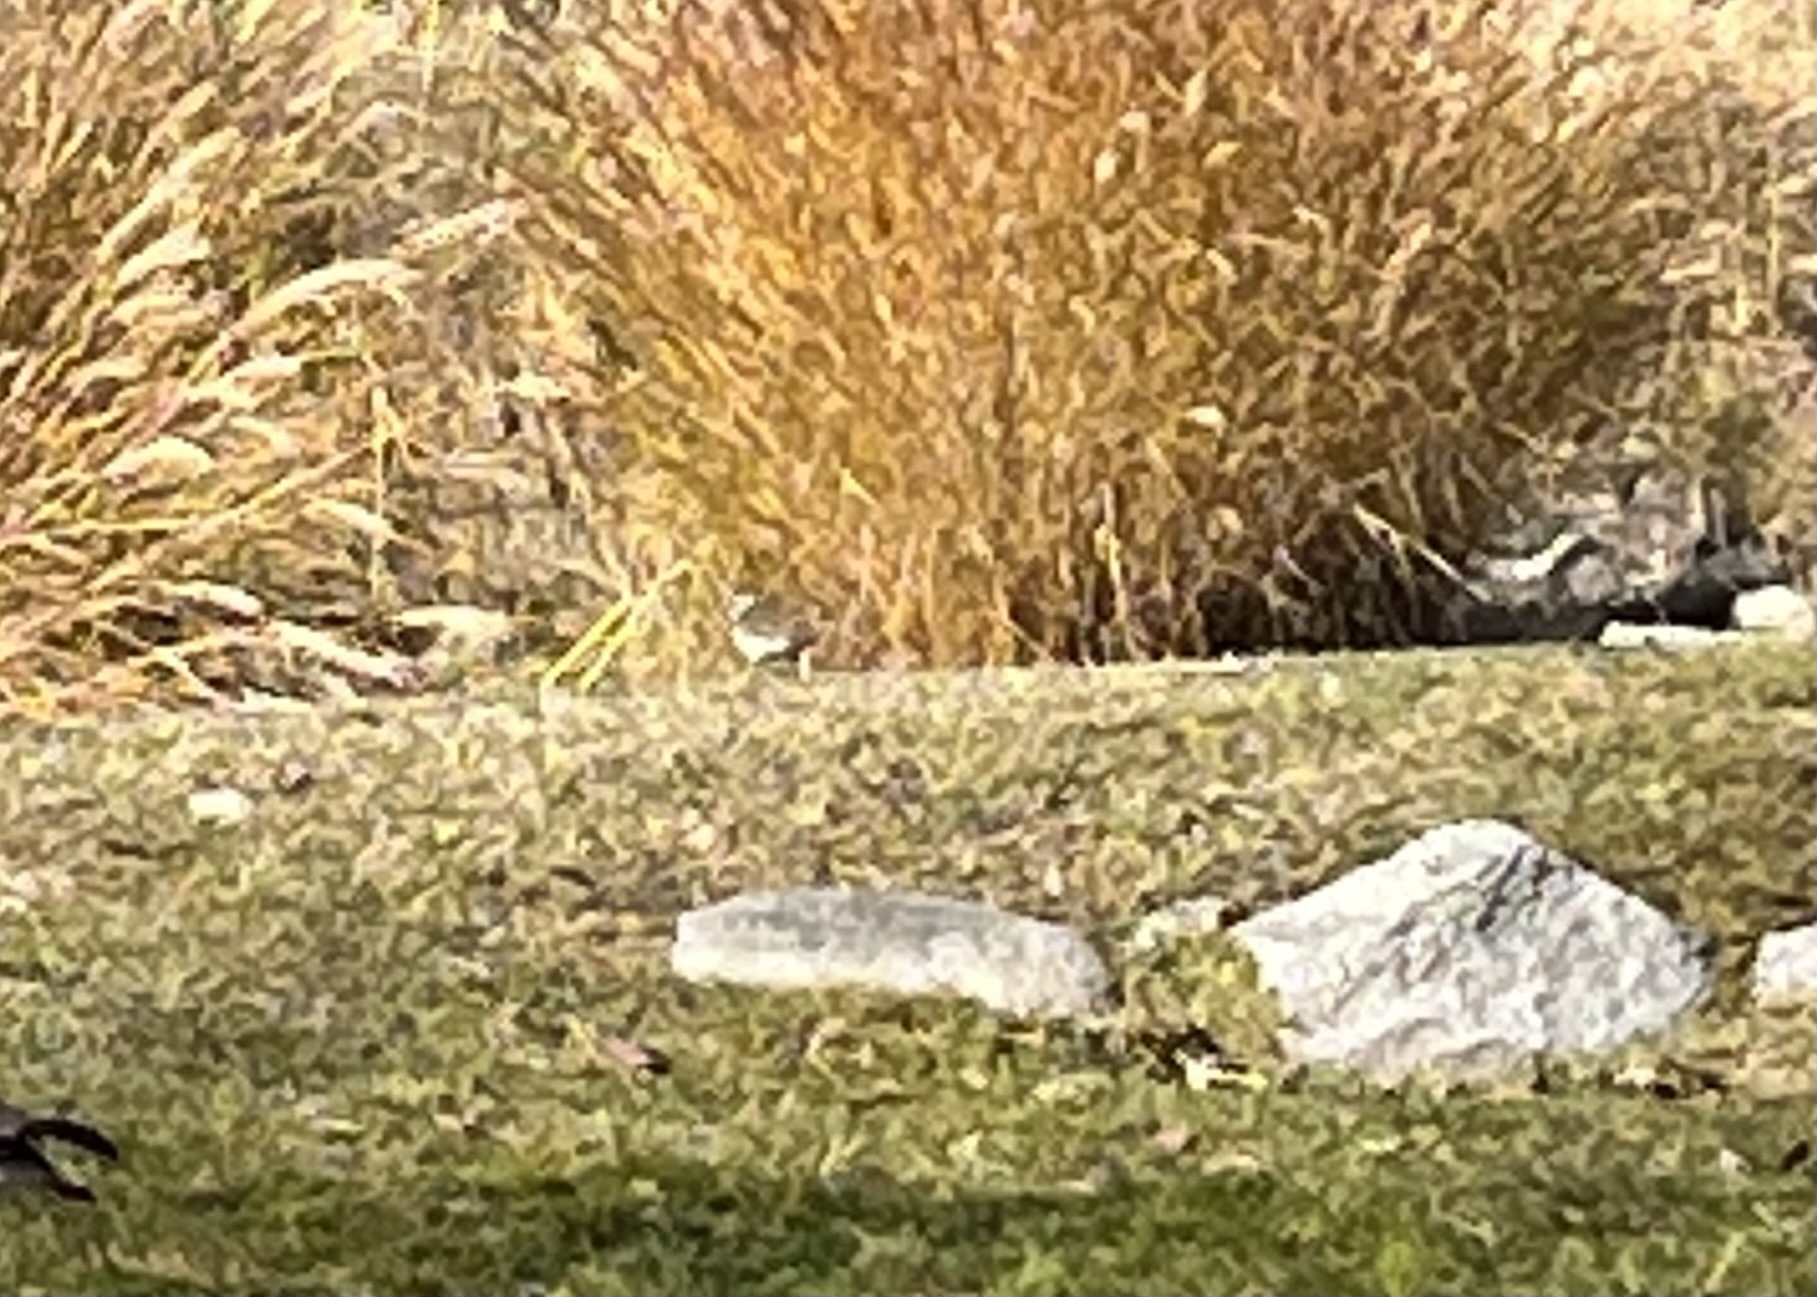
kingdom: Animalia
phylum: Chordata
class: Aves
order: Charadriiformes
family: Charadriidae
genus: Charadrius
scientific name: Charadrius vociferus
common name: Killdeer
